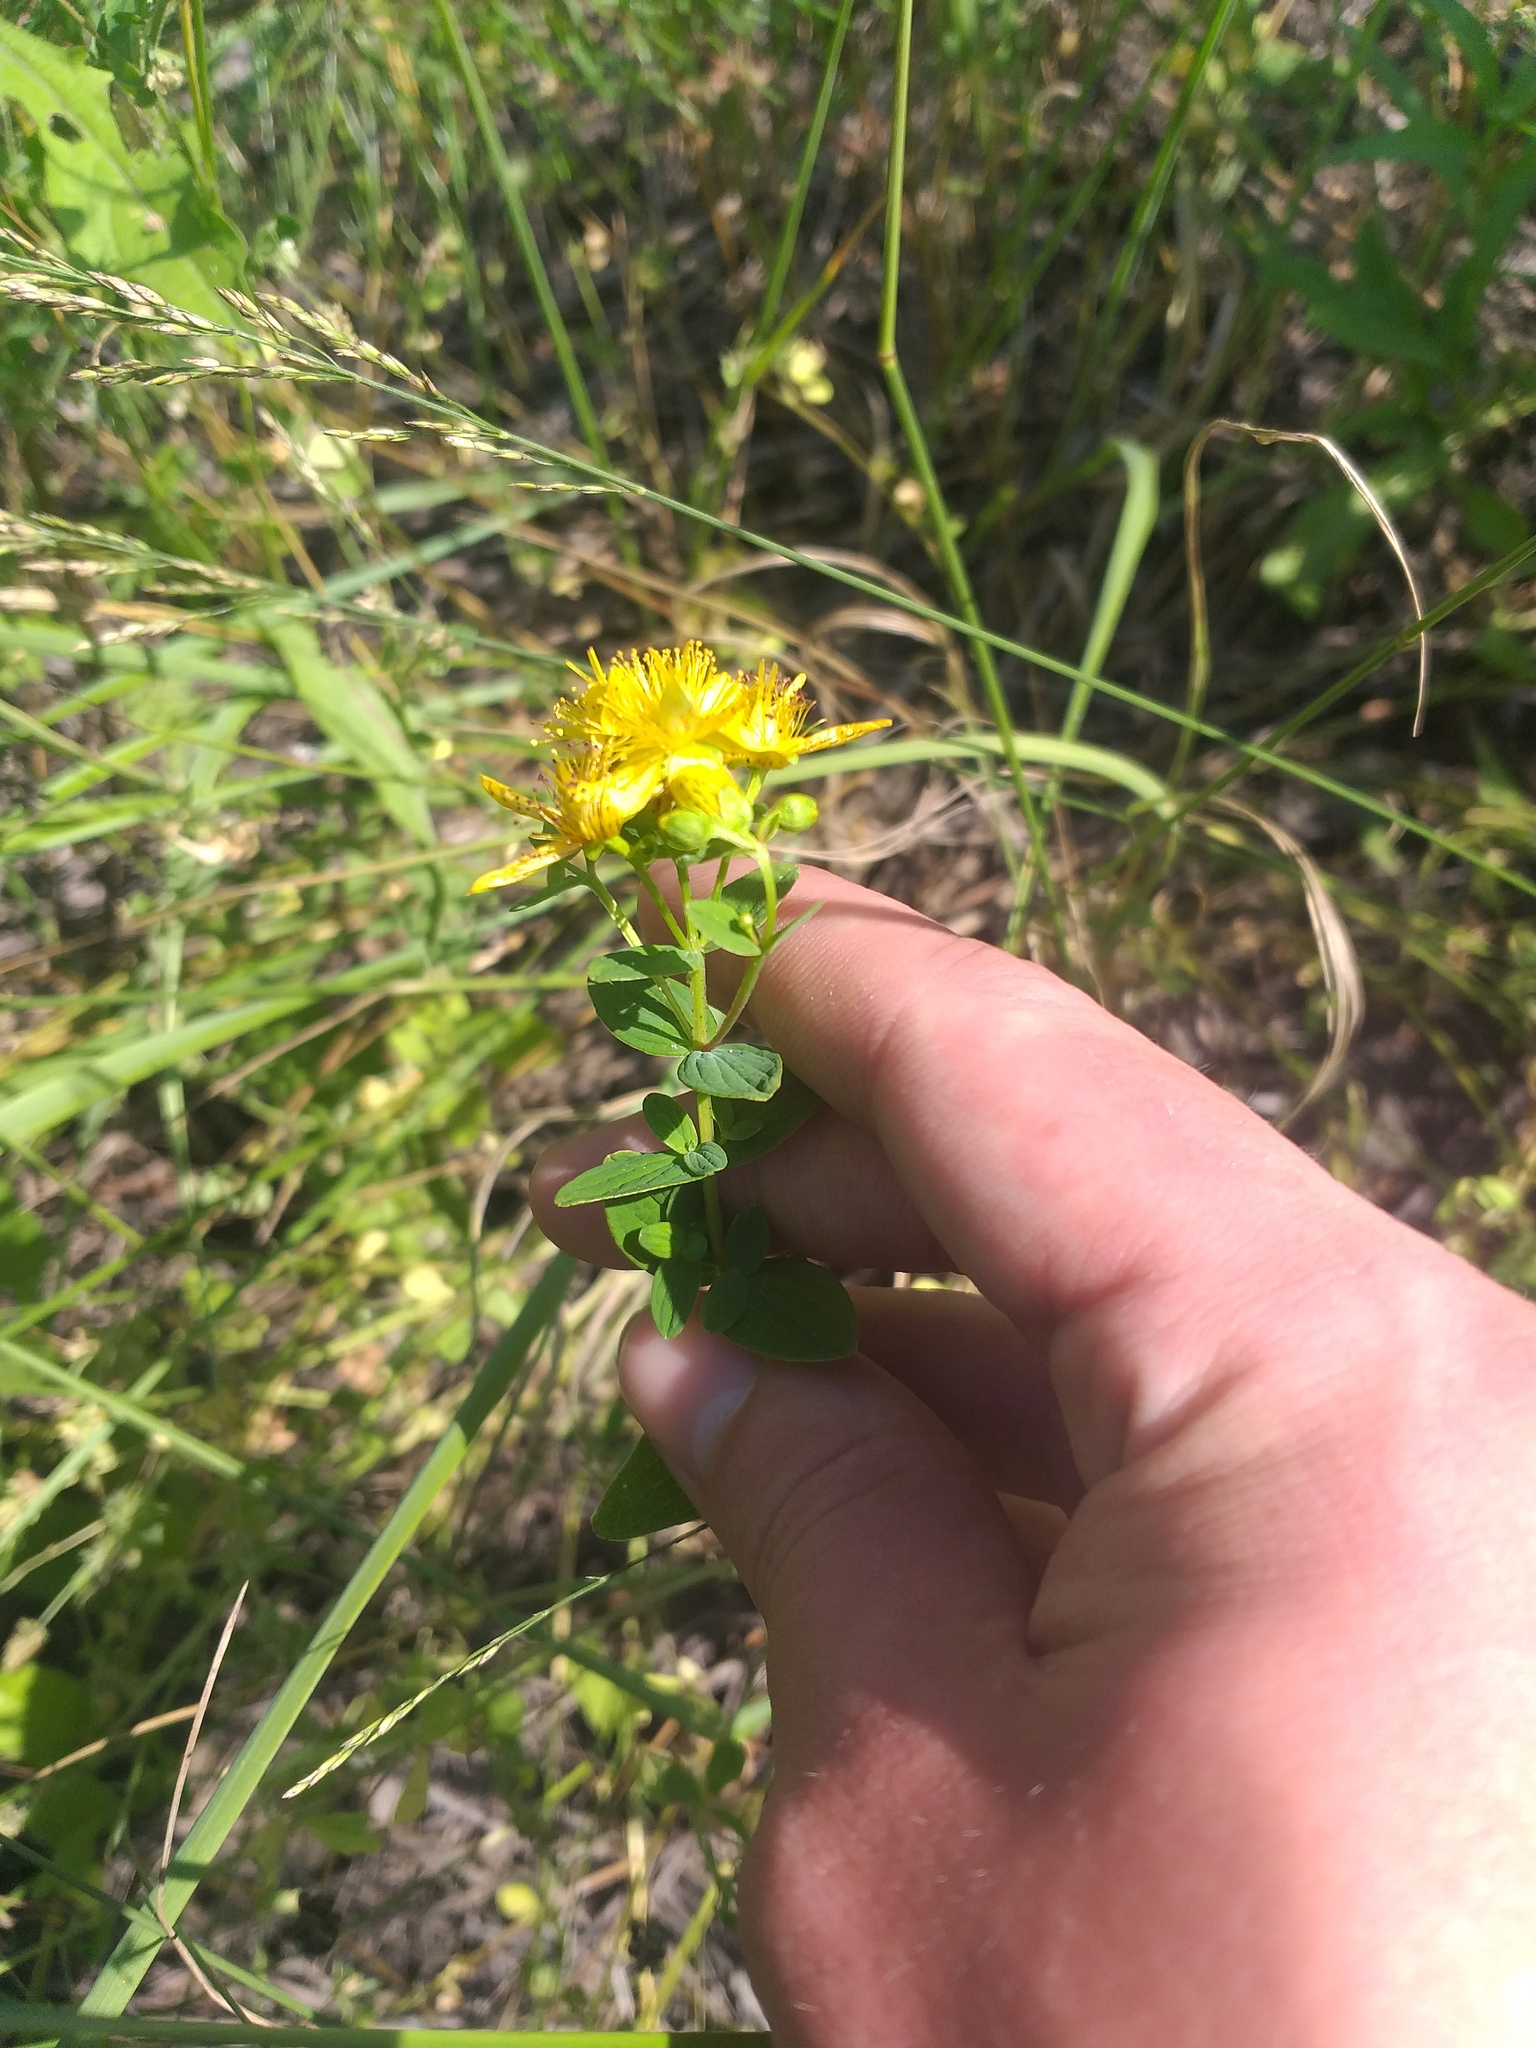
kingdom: Plantae
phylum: Tracheophyta
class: Magnoliopsida
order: Malpighiales
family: Hypericaceae
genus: Hypericum
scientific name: Hypericum maculatum
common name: Imperforate st. john's-wort
